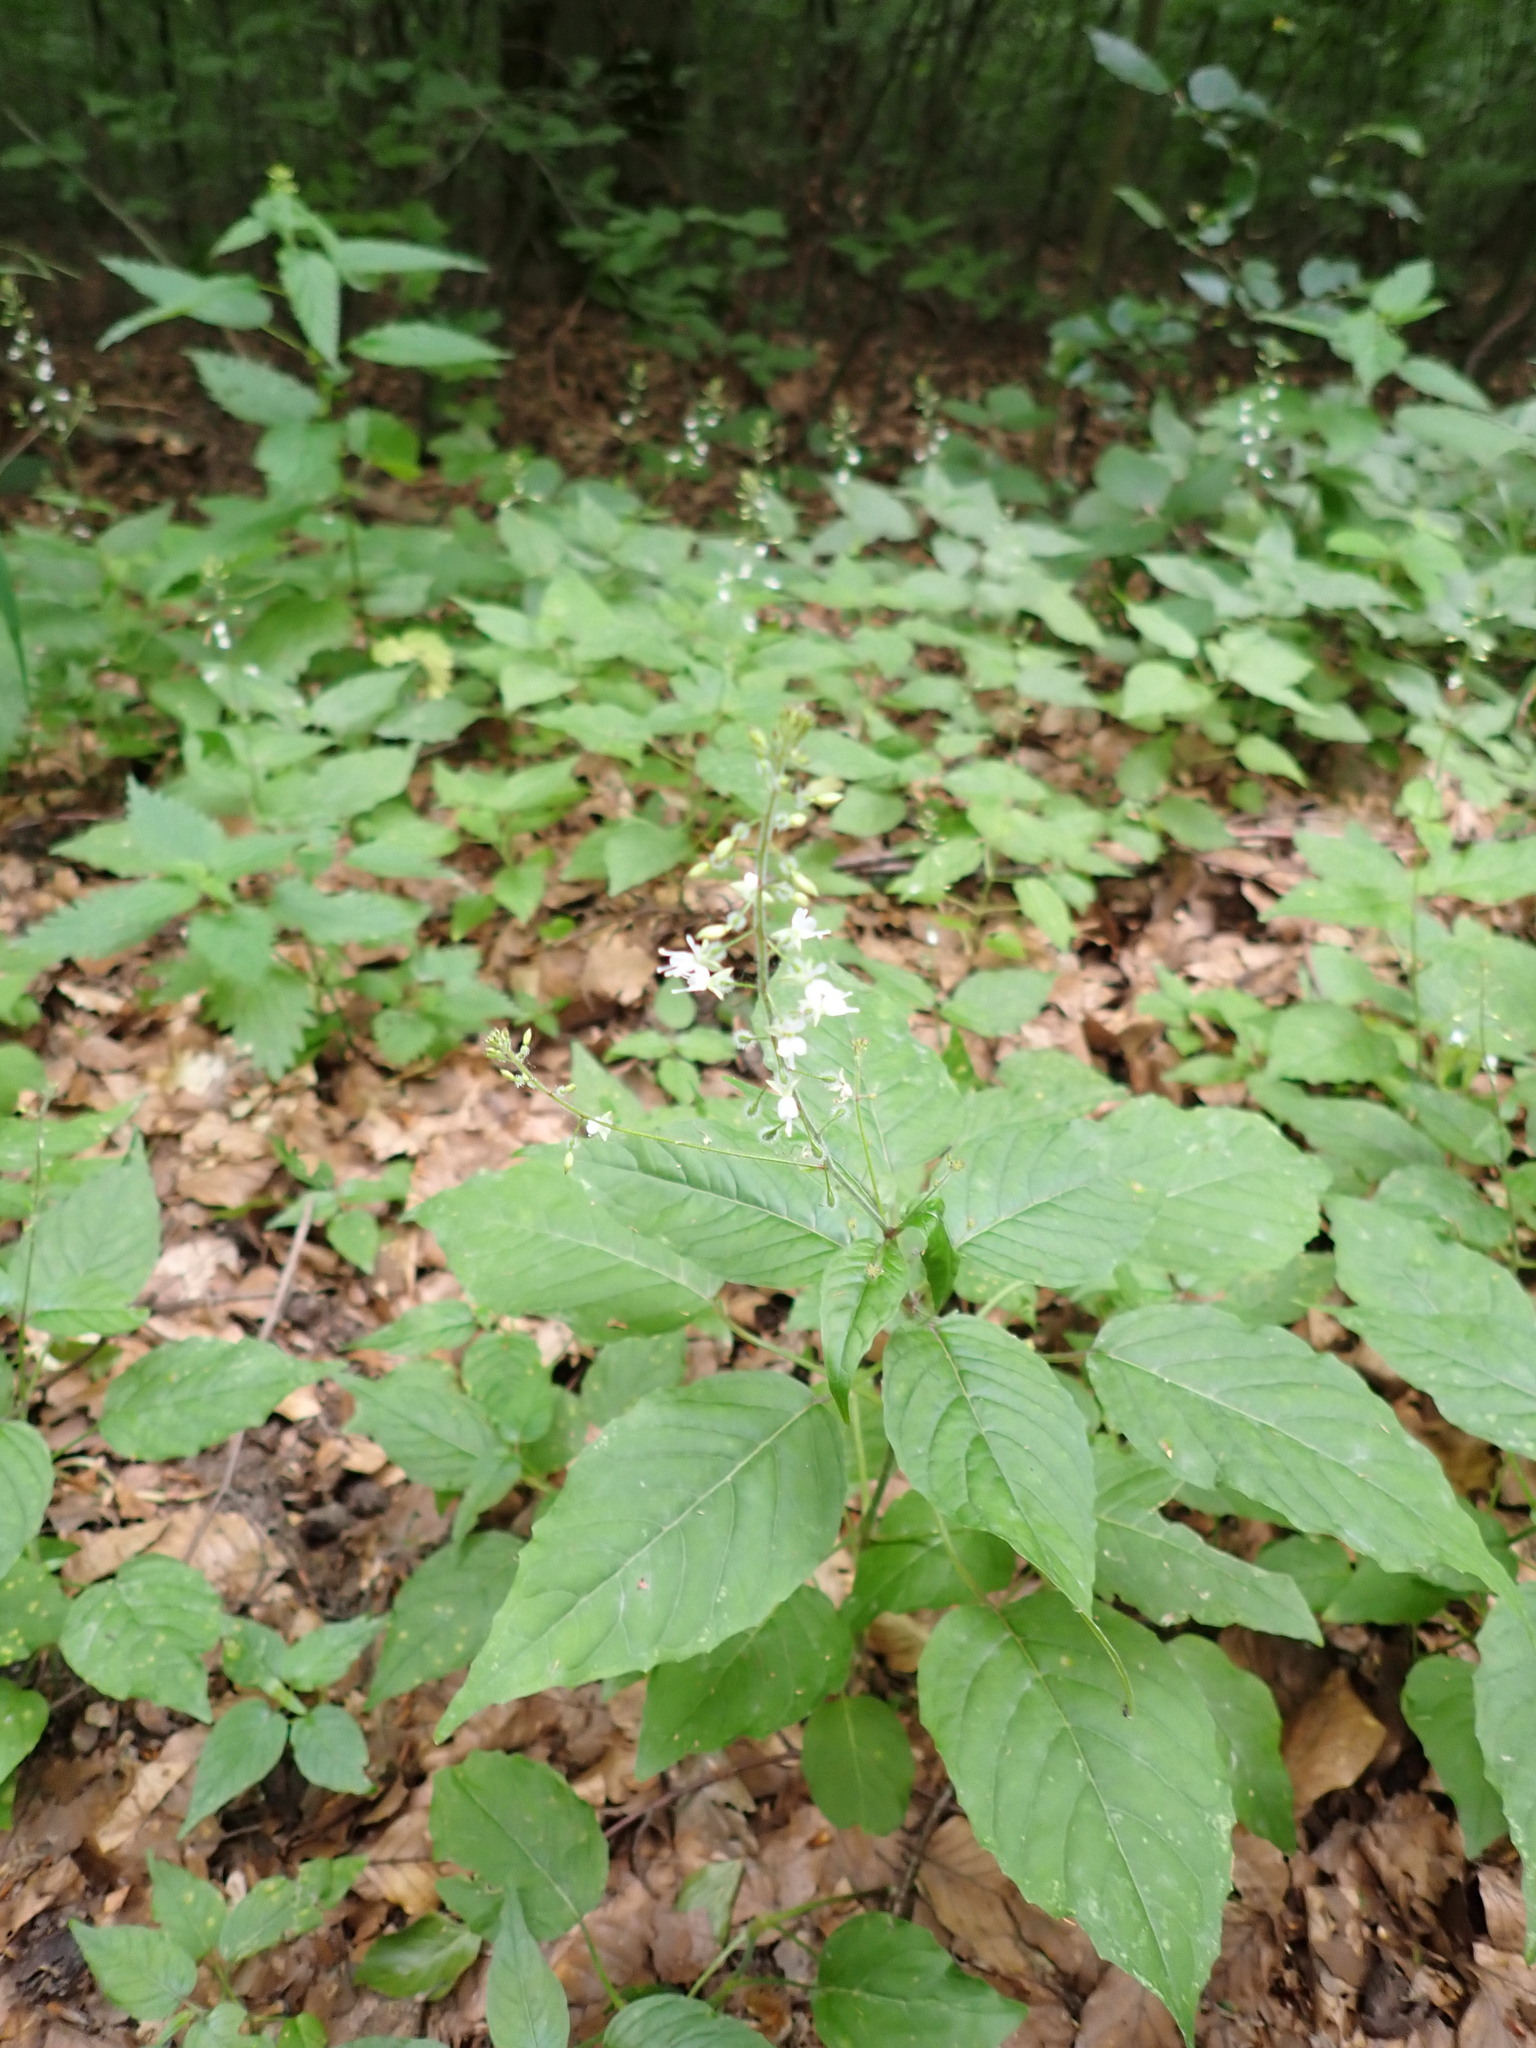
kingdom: Plantae
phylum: Tracheophyta
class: Magnoliopsida
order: Myrtales
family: Onagraceae
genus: Circaea
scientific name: Circaea lutetiana
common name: Enchanter's-nightshade
